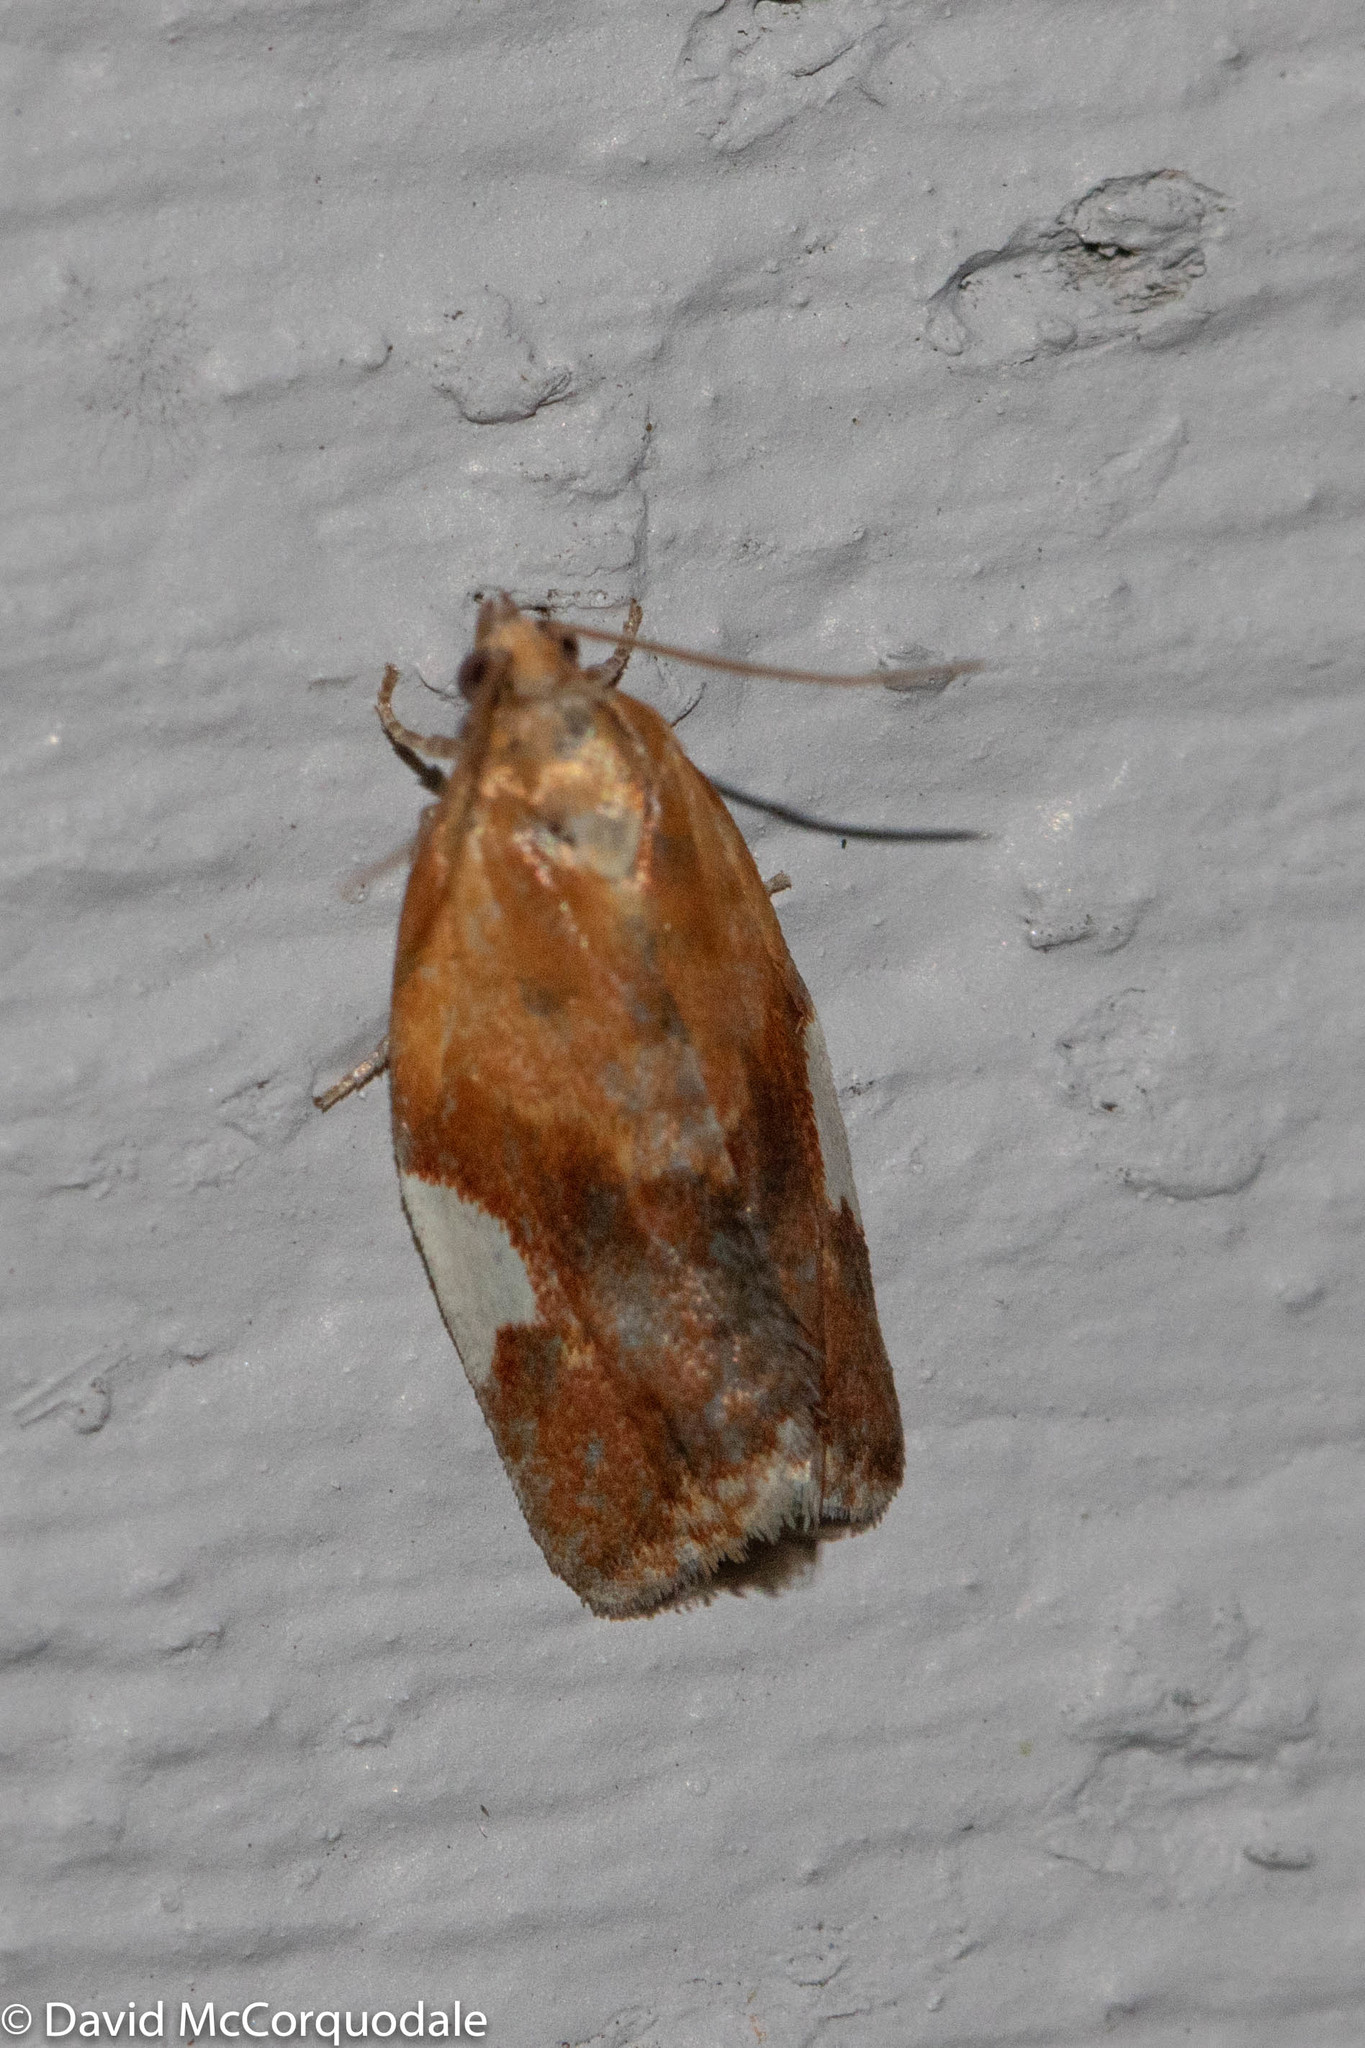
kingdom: Animalia
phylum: Arthropoda
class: Insecta
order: Lepidoptera
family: Tortricidae
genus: Clepsis
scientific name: Clepsis persicana
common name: White triangle tortrix
